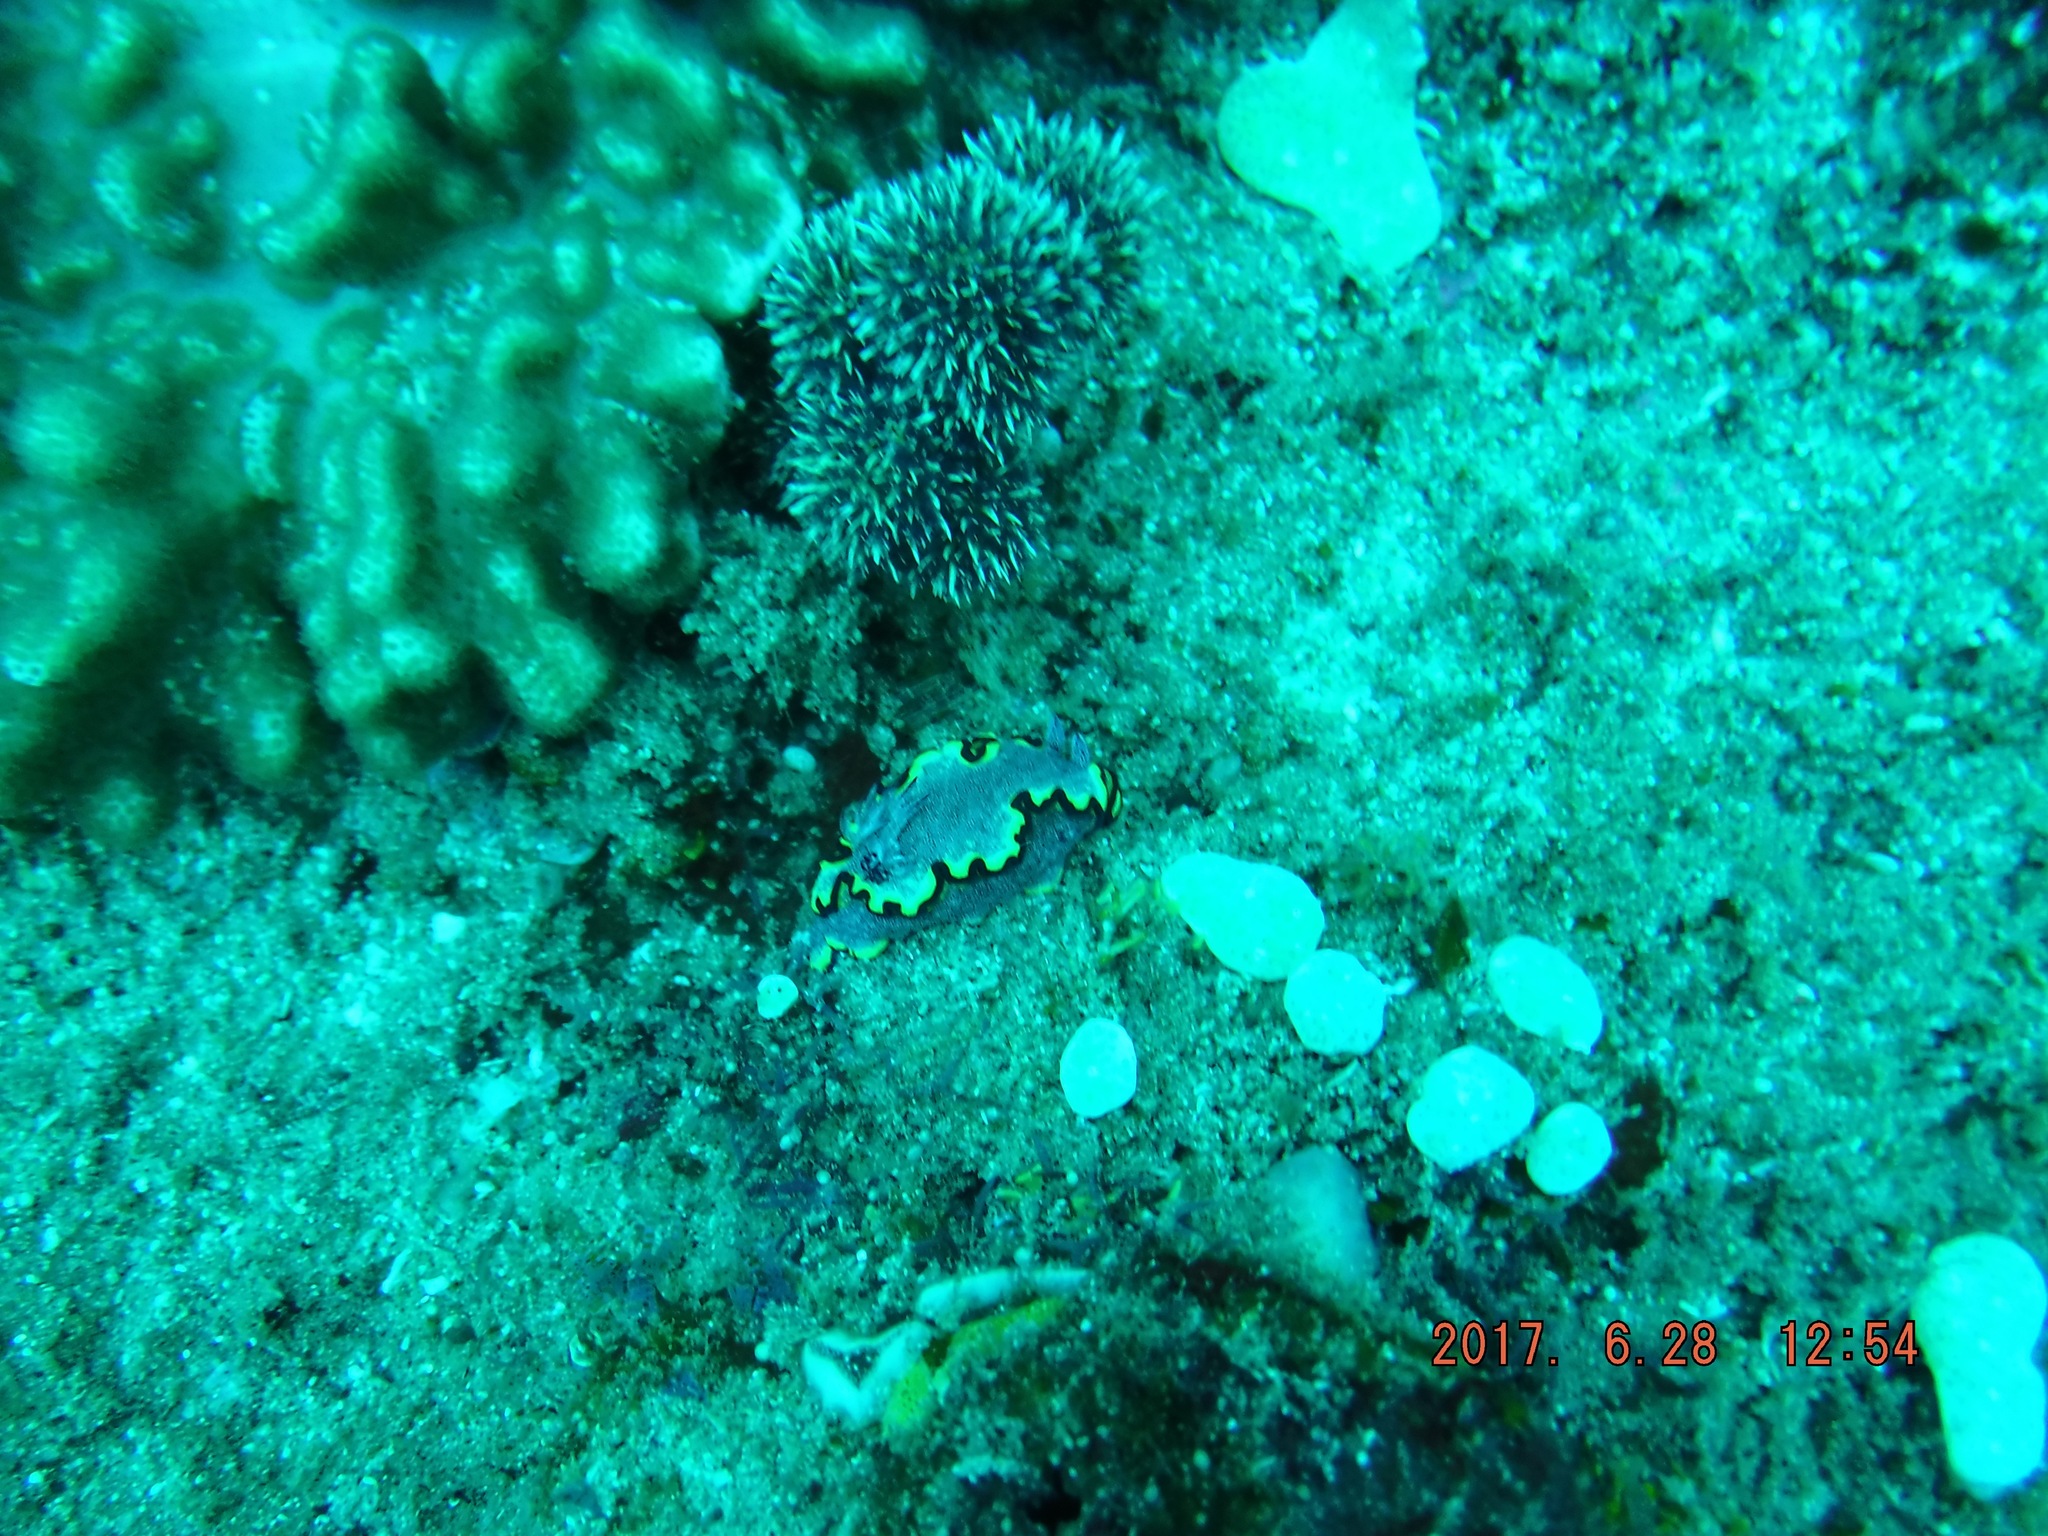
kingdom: Animalia
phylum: Mollusca
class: Gastropoda
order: Nudibranchia
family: Chromodorididae
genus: Glossodoris
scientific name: Glossodoris bonwanga
